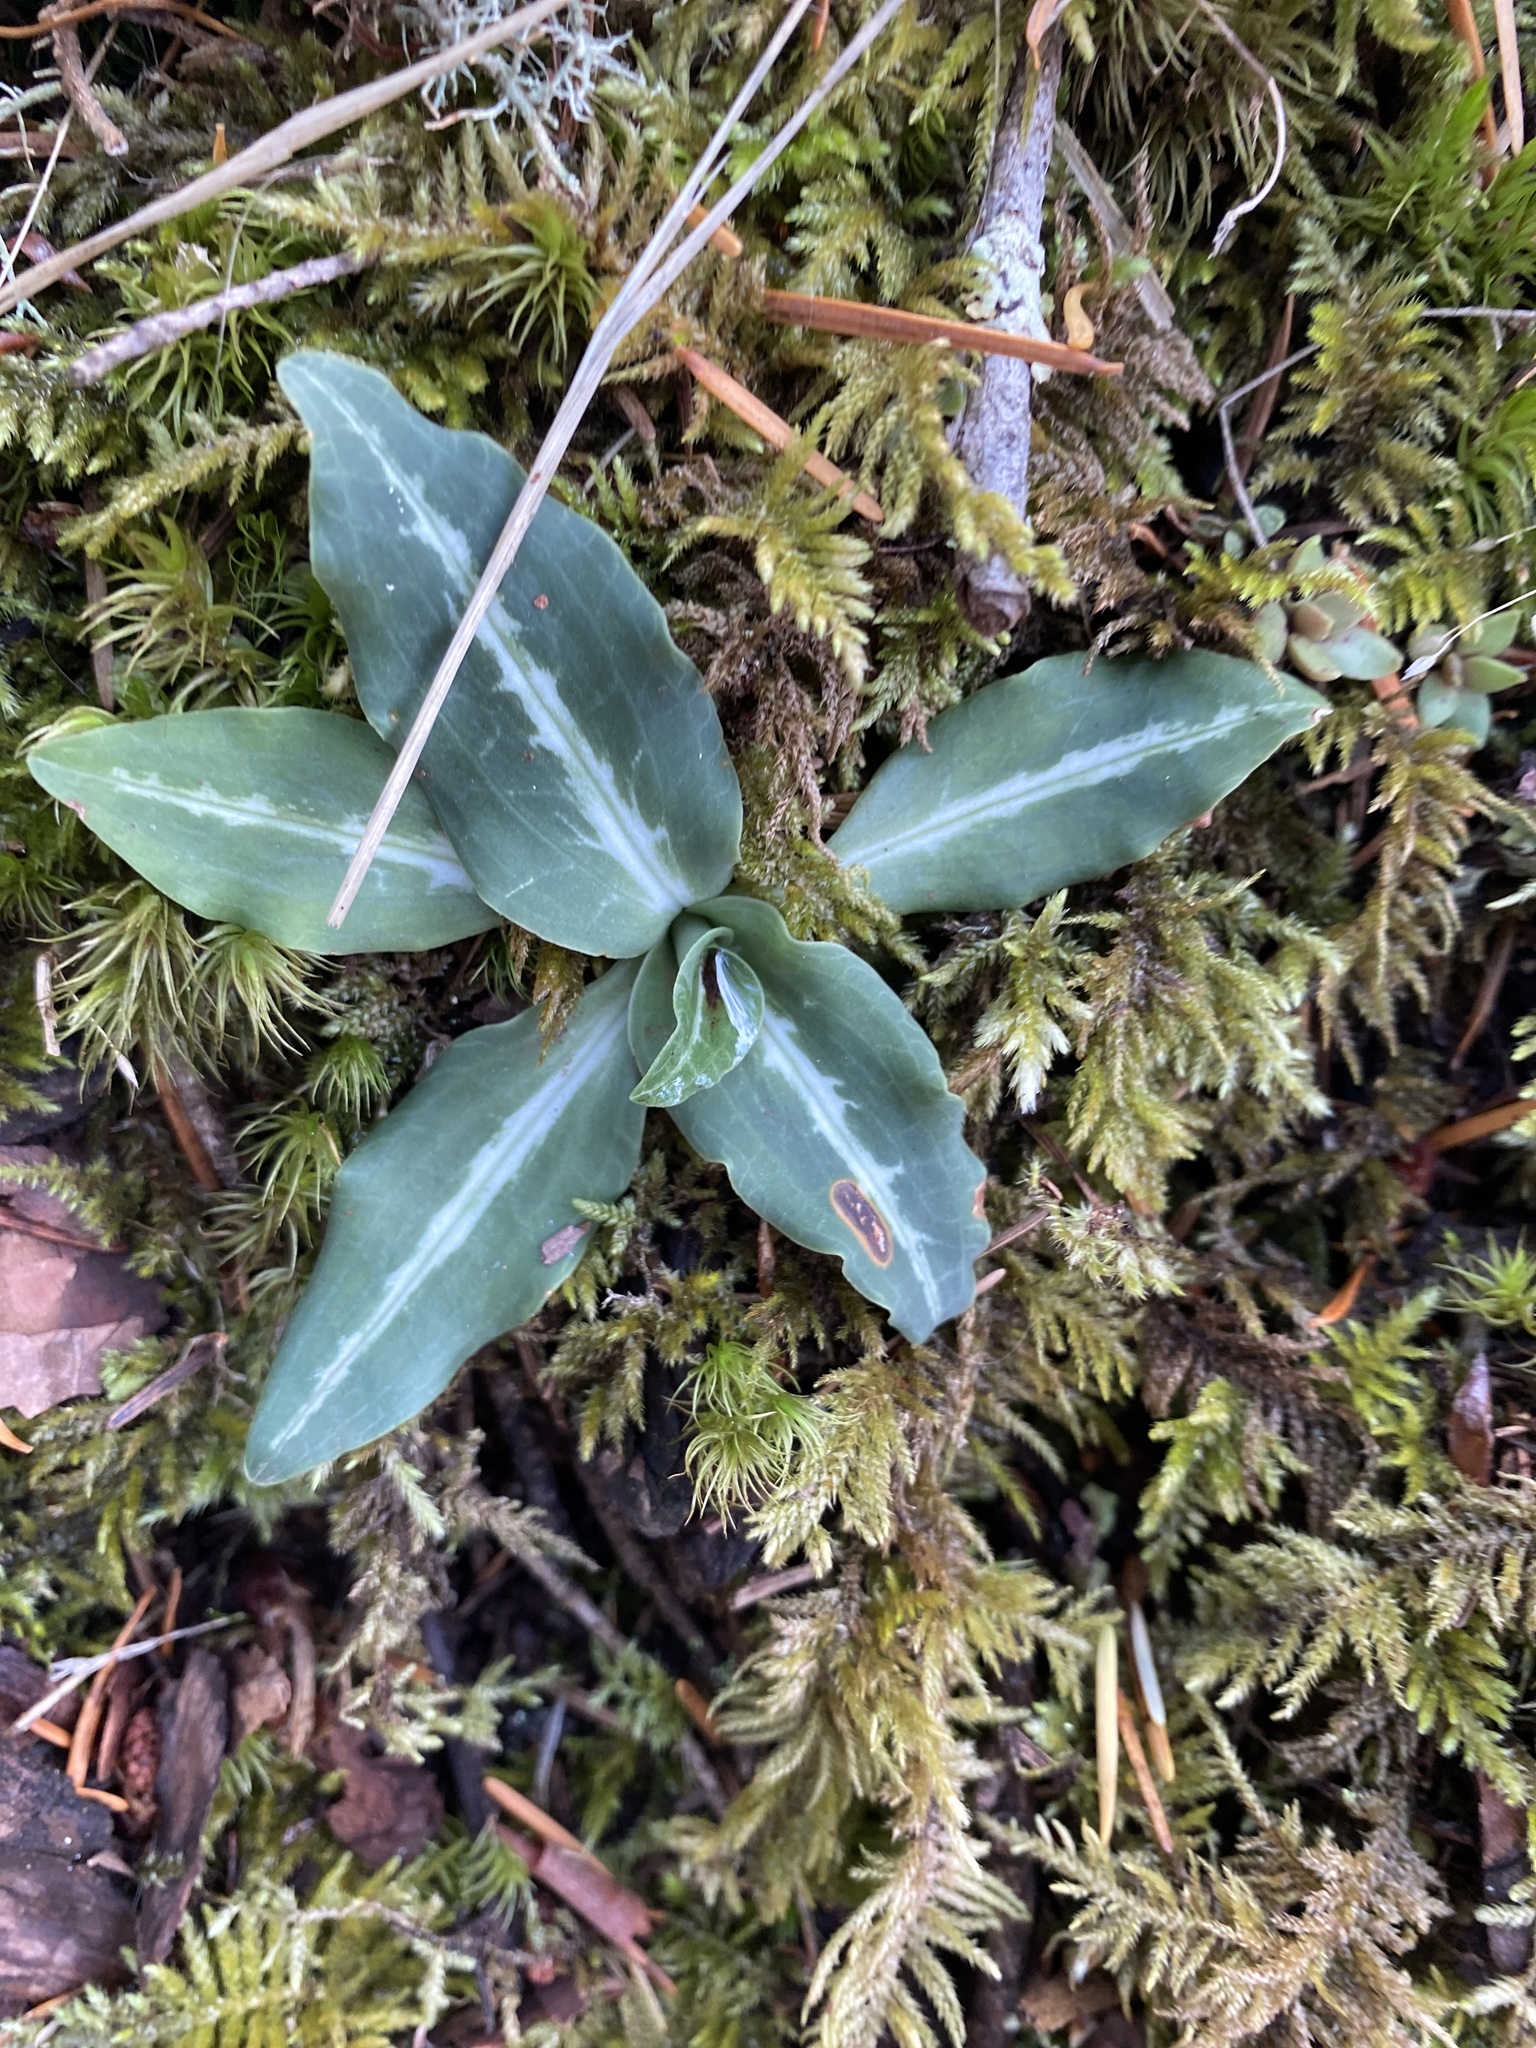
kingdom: Plantae
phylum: Tracheophyta
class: Liliopsida
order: Asparagales
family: Orchidaceae
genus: Goodyera
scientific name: Goodyera oblongifolia
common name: Giant rattlesnake-plantain
